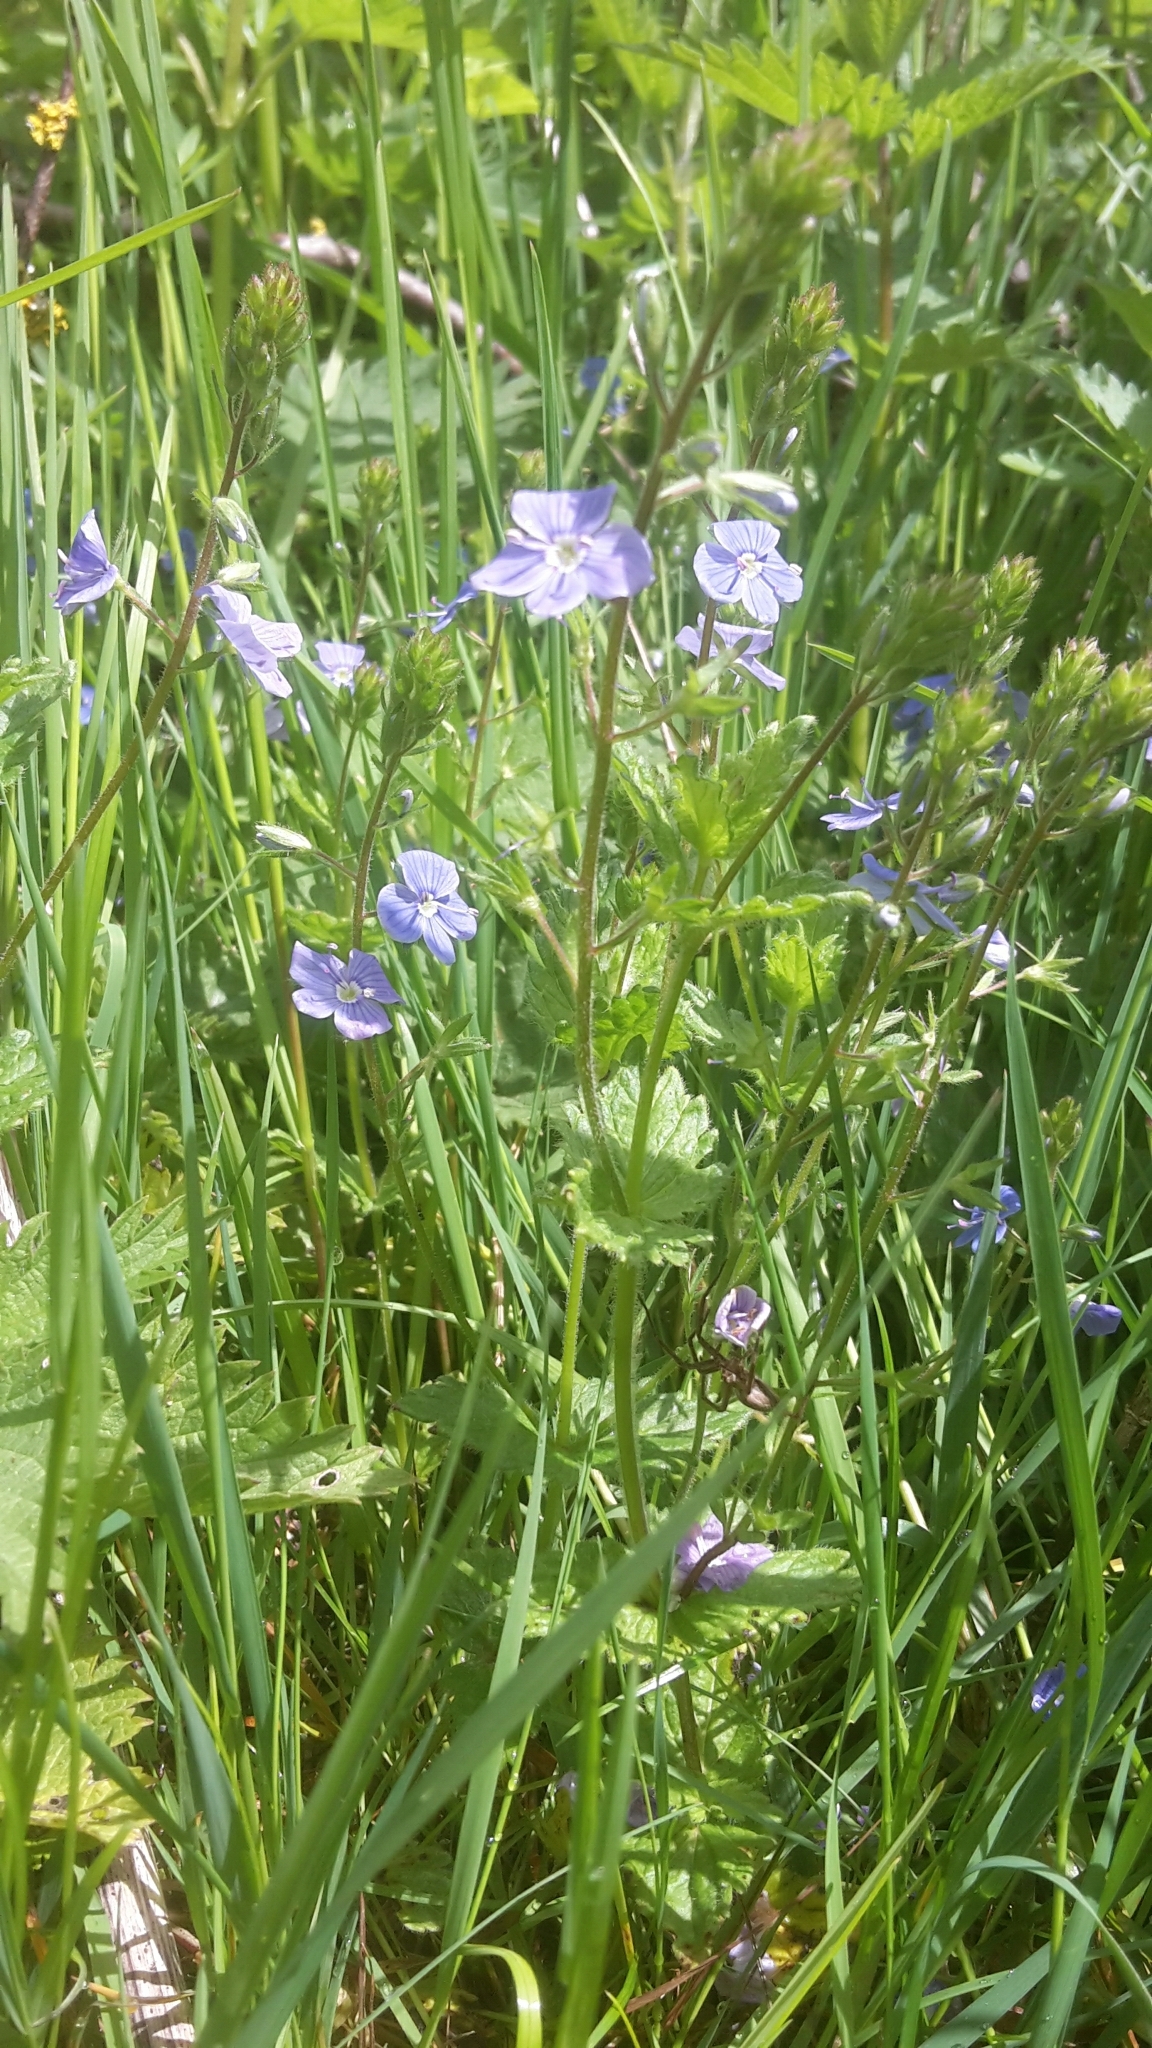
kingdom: Plantae
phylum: Tracheophyta
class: Magnoliopsida
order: Lamiales
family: Plantaginaceae
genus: Veronica
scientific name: Veronica chamaedrys
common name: Germander speedwell
